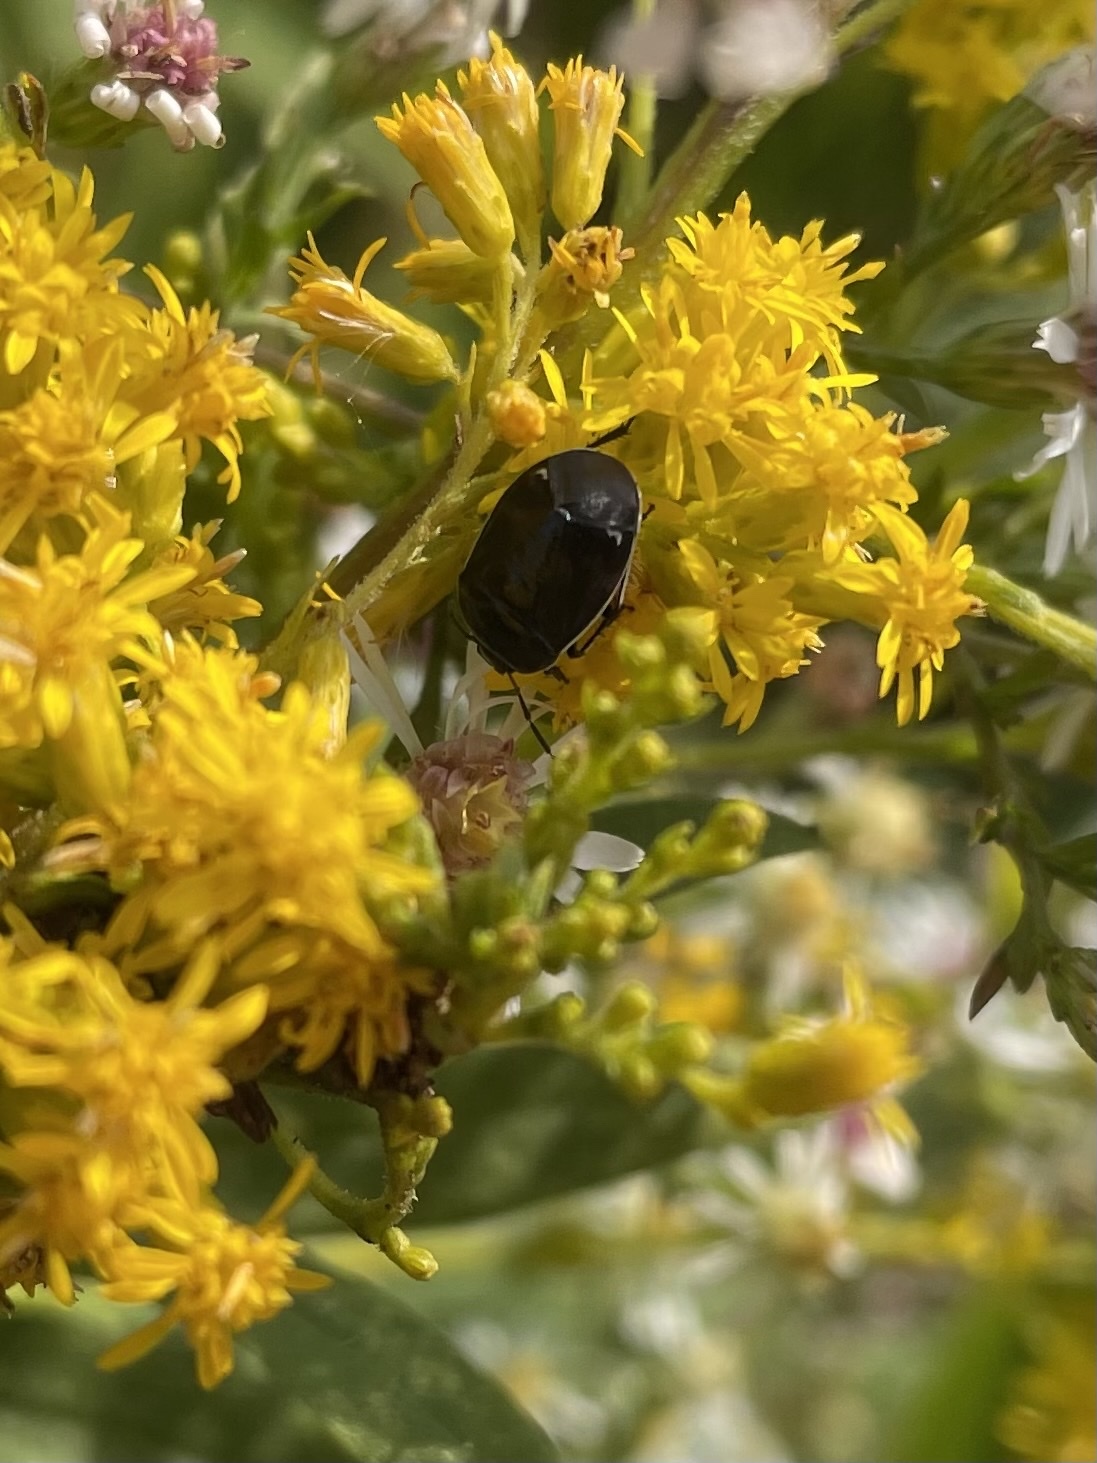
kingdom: Animalia
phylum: Arthropoda
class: Insecta
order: Hemiptera
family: Cydnidae
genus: Sehirus
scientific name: Sehirus cinctus
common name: White-margined burrower bug
